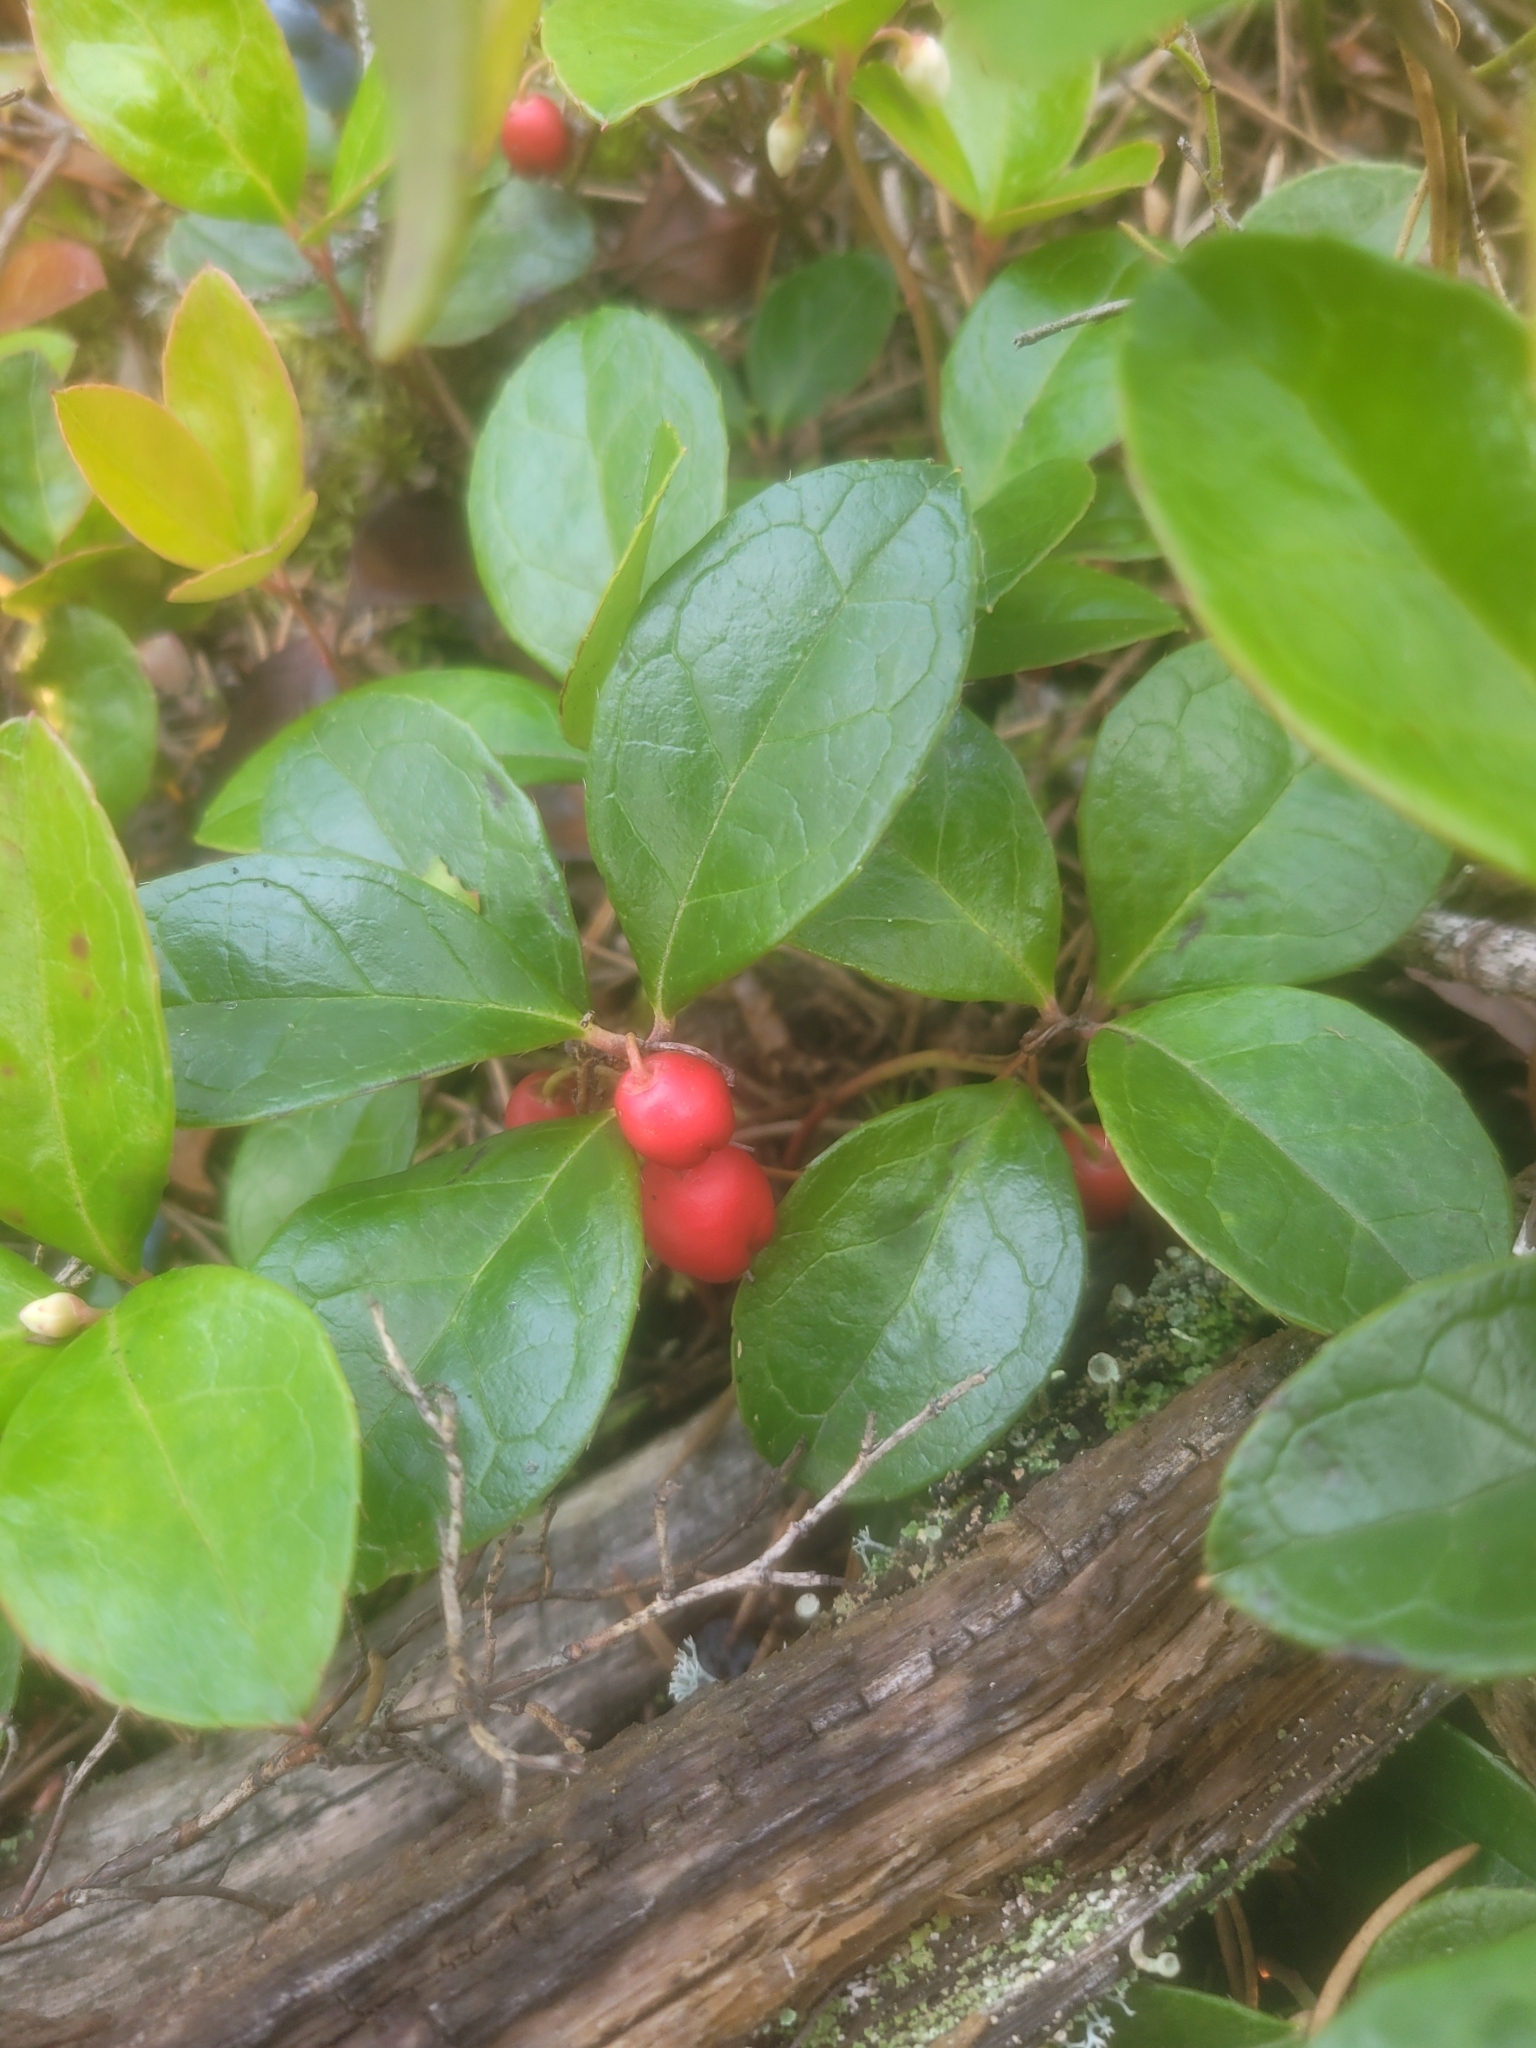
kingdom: Plantae
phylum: Tracheophyta
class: Magnoliopsida
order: Ericales
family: Ericaceae
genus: Gaultheria
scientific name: Gaultheria procumbens
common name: Checkerberry
